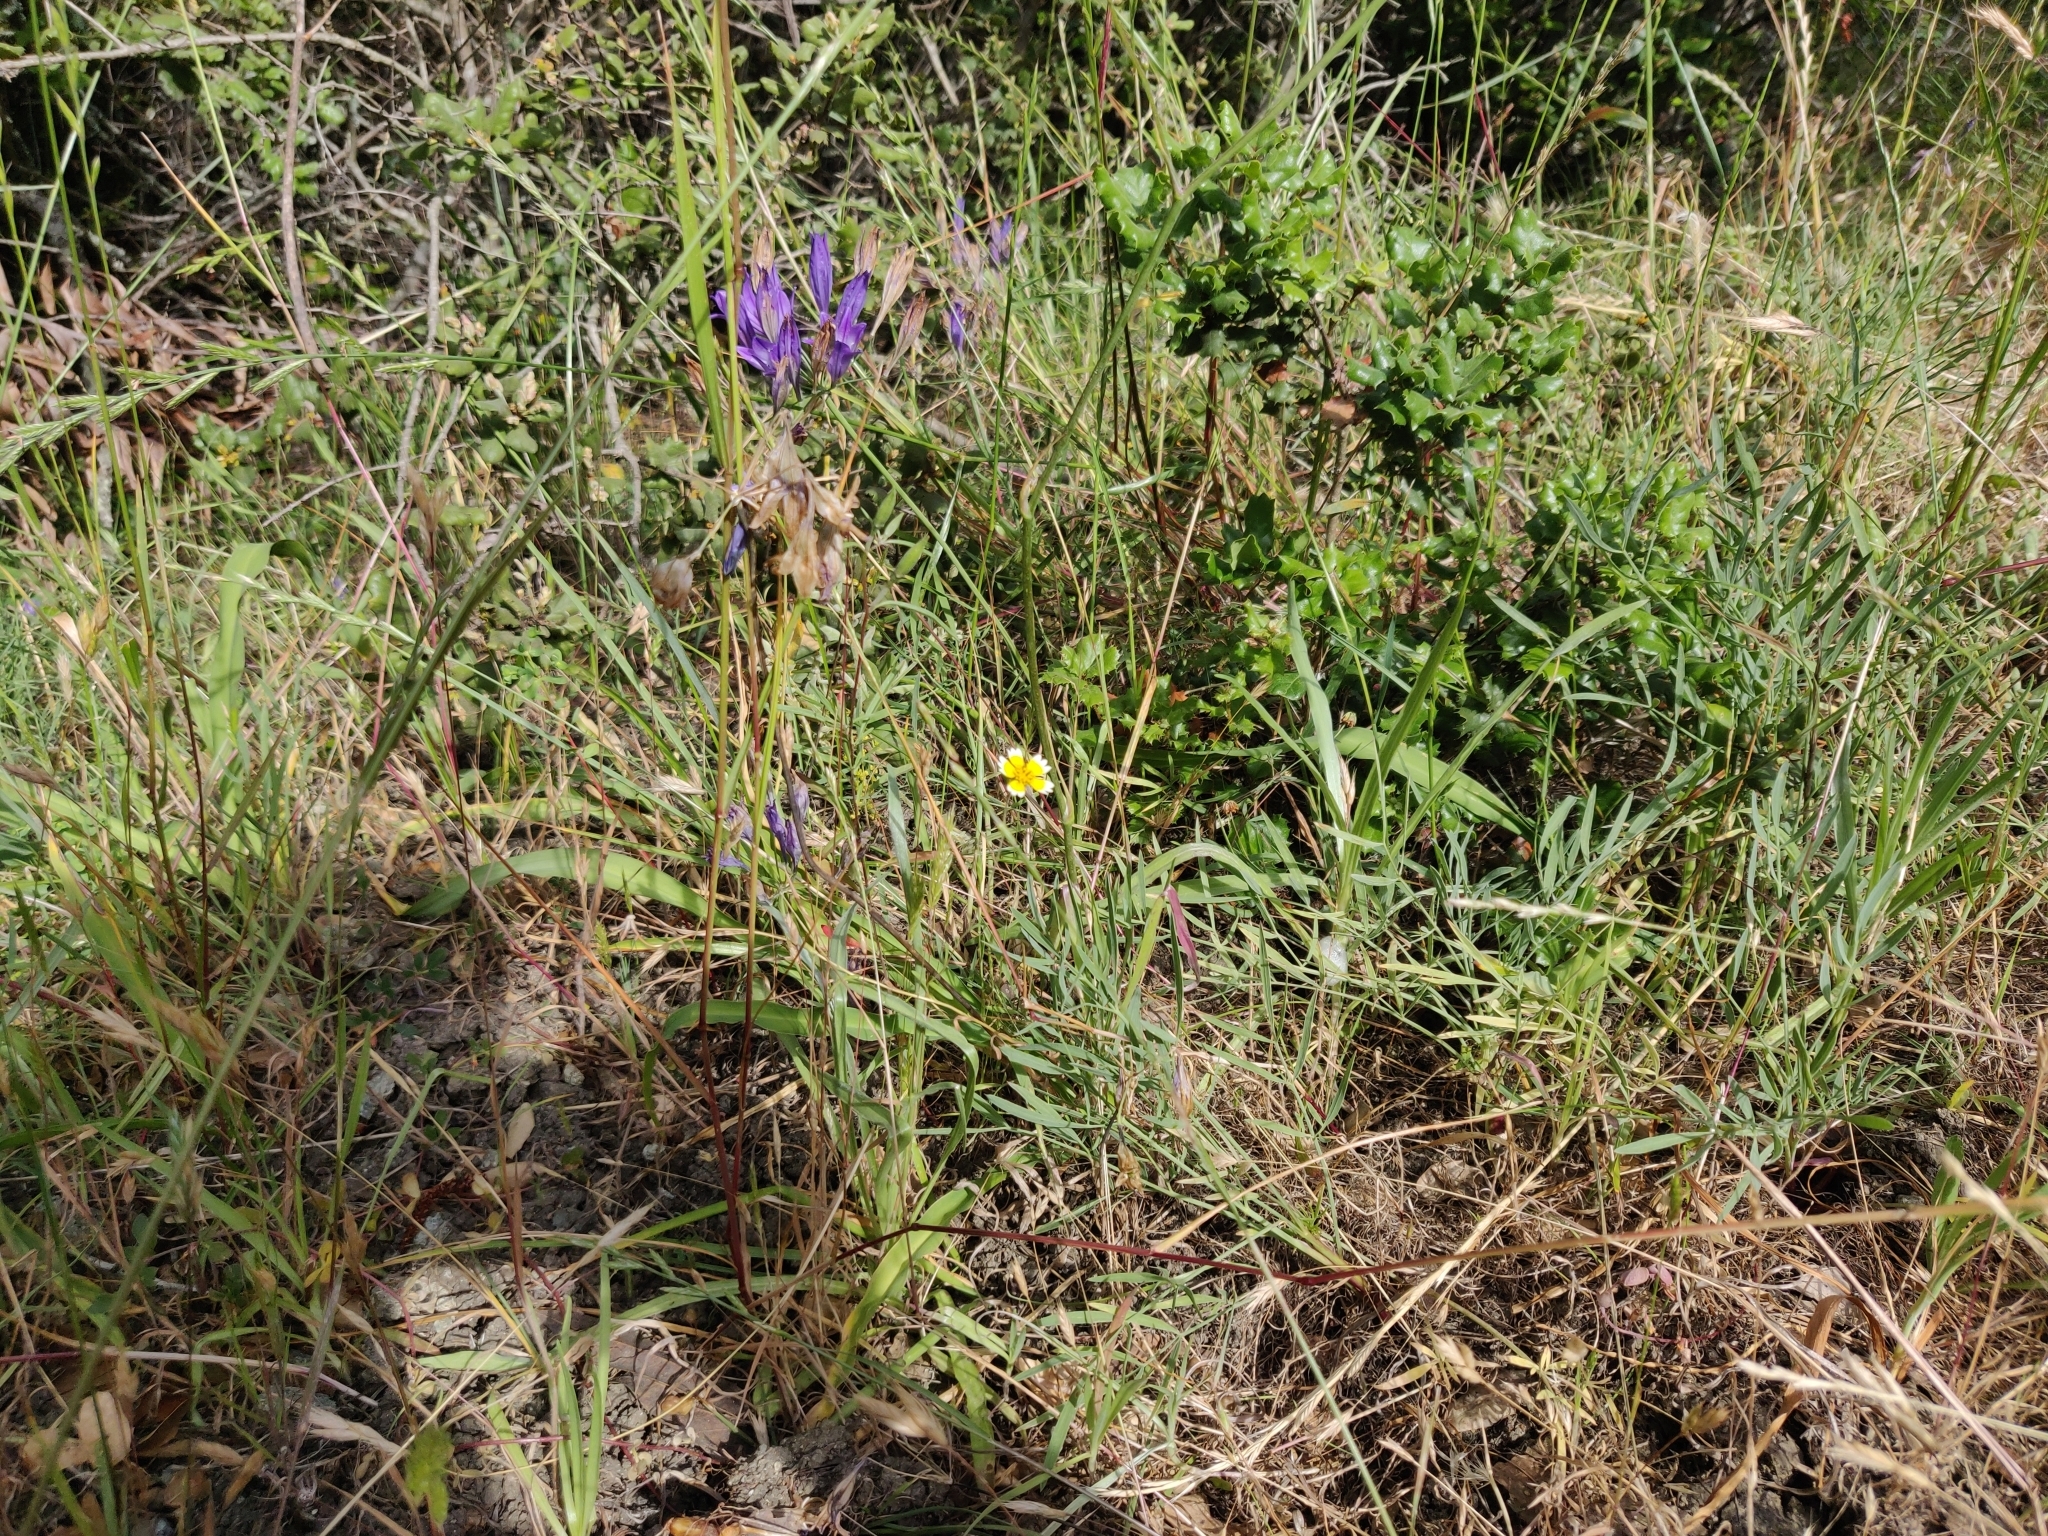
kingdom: Plantae
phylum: Tracheophyta
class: Liliopsida
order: Asparagales
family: Asparagaceae
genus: Triteleia
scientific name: Triteleia laxa
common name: Triplet-lily
